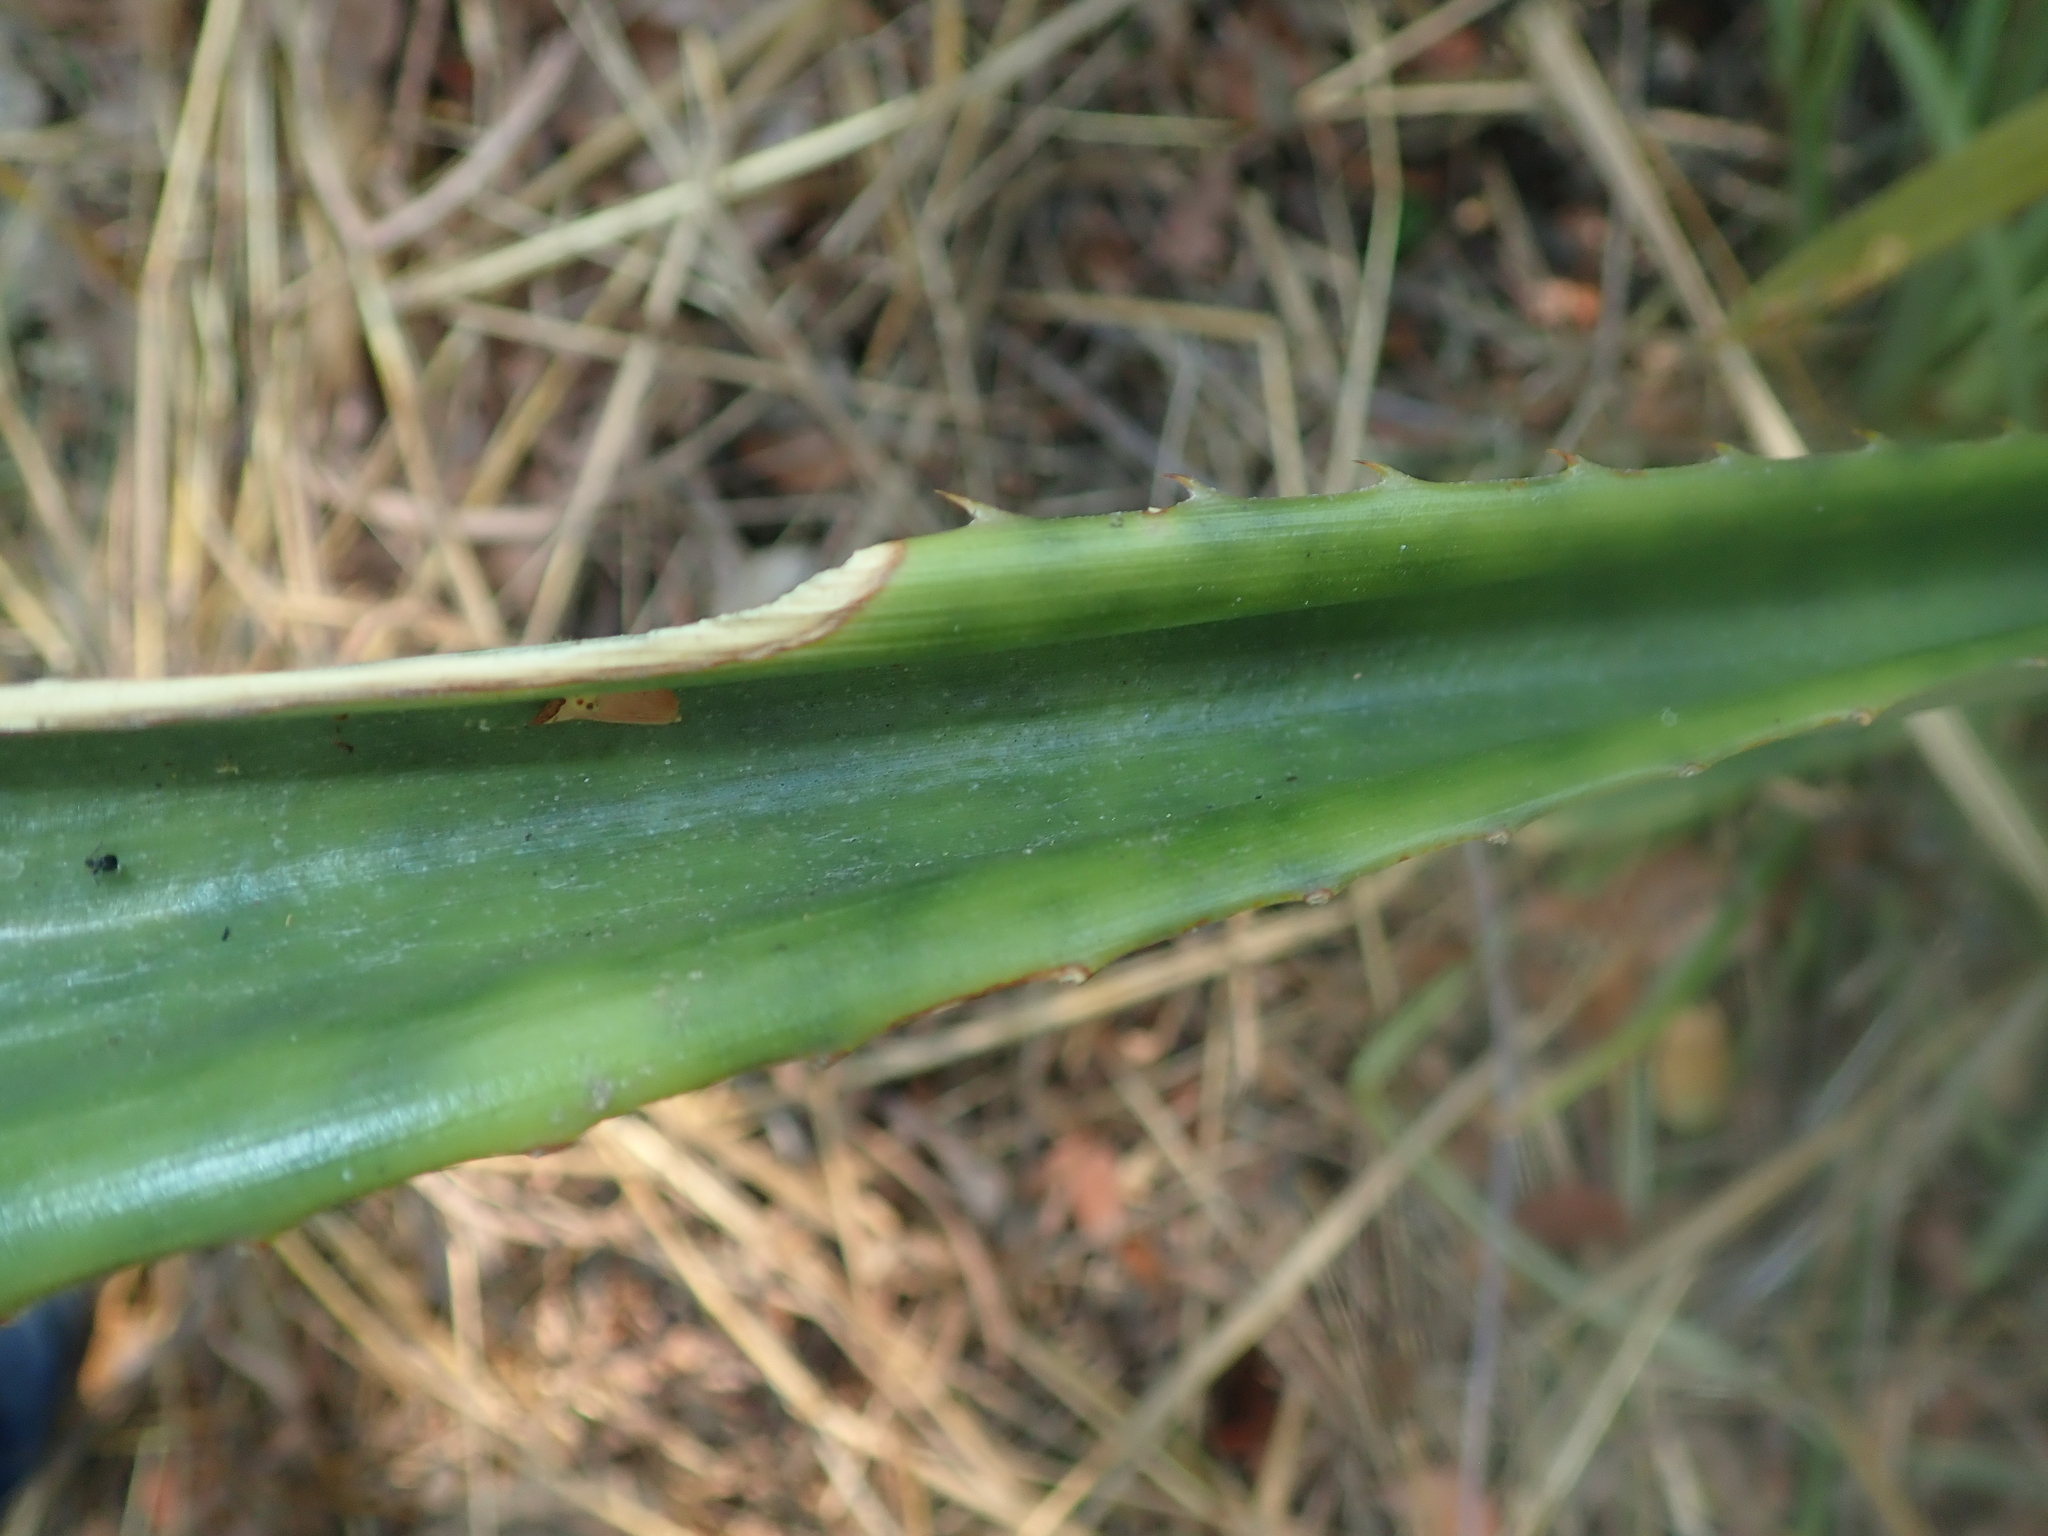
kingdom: Plantae
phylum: Tracheophyta
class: Liliopsida
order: Poales
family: Bromeliaceae
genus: Ananas
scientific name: Ananas comosus
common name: Pineapple
